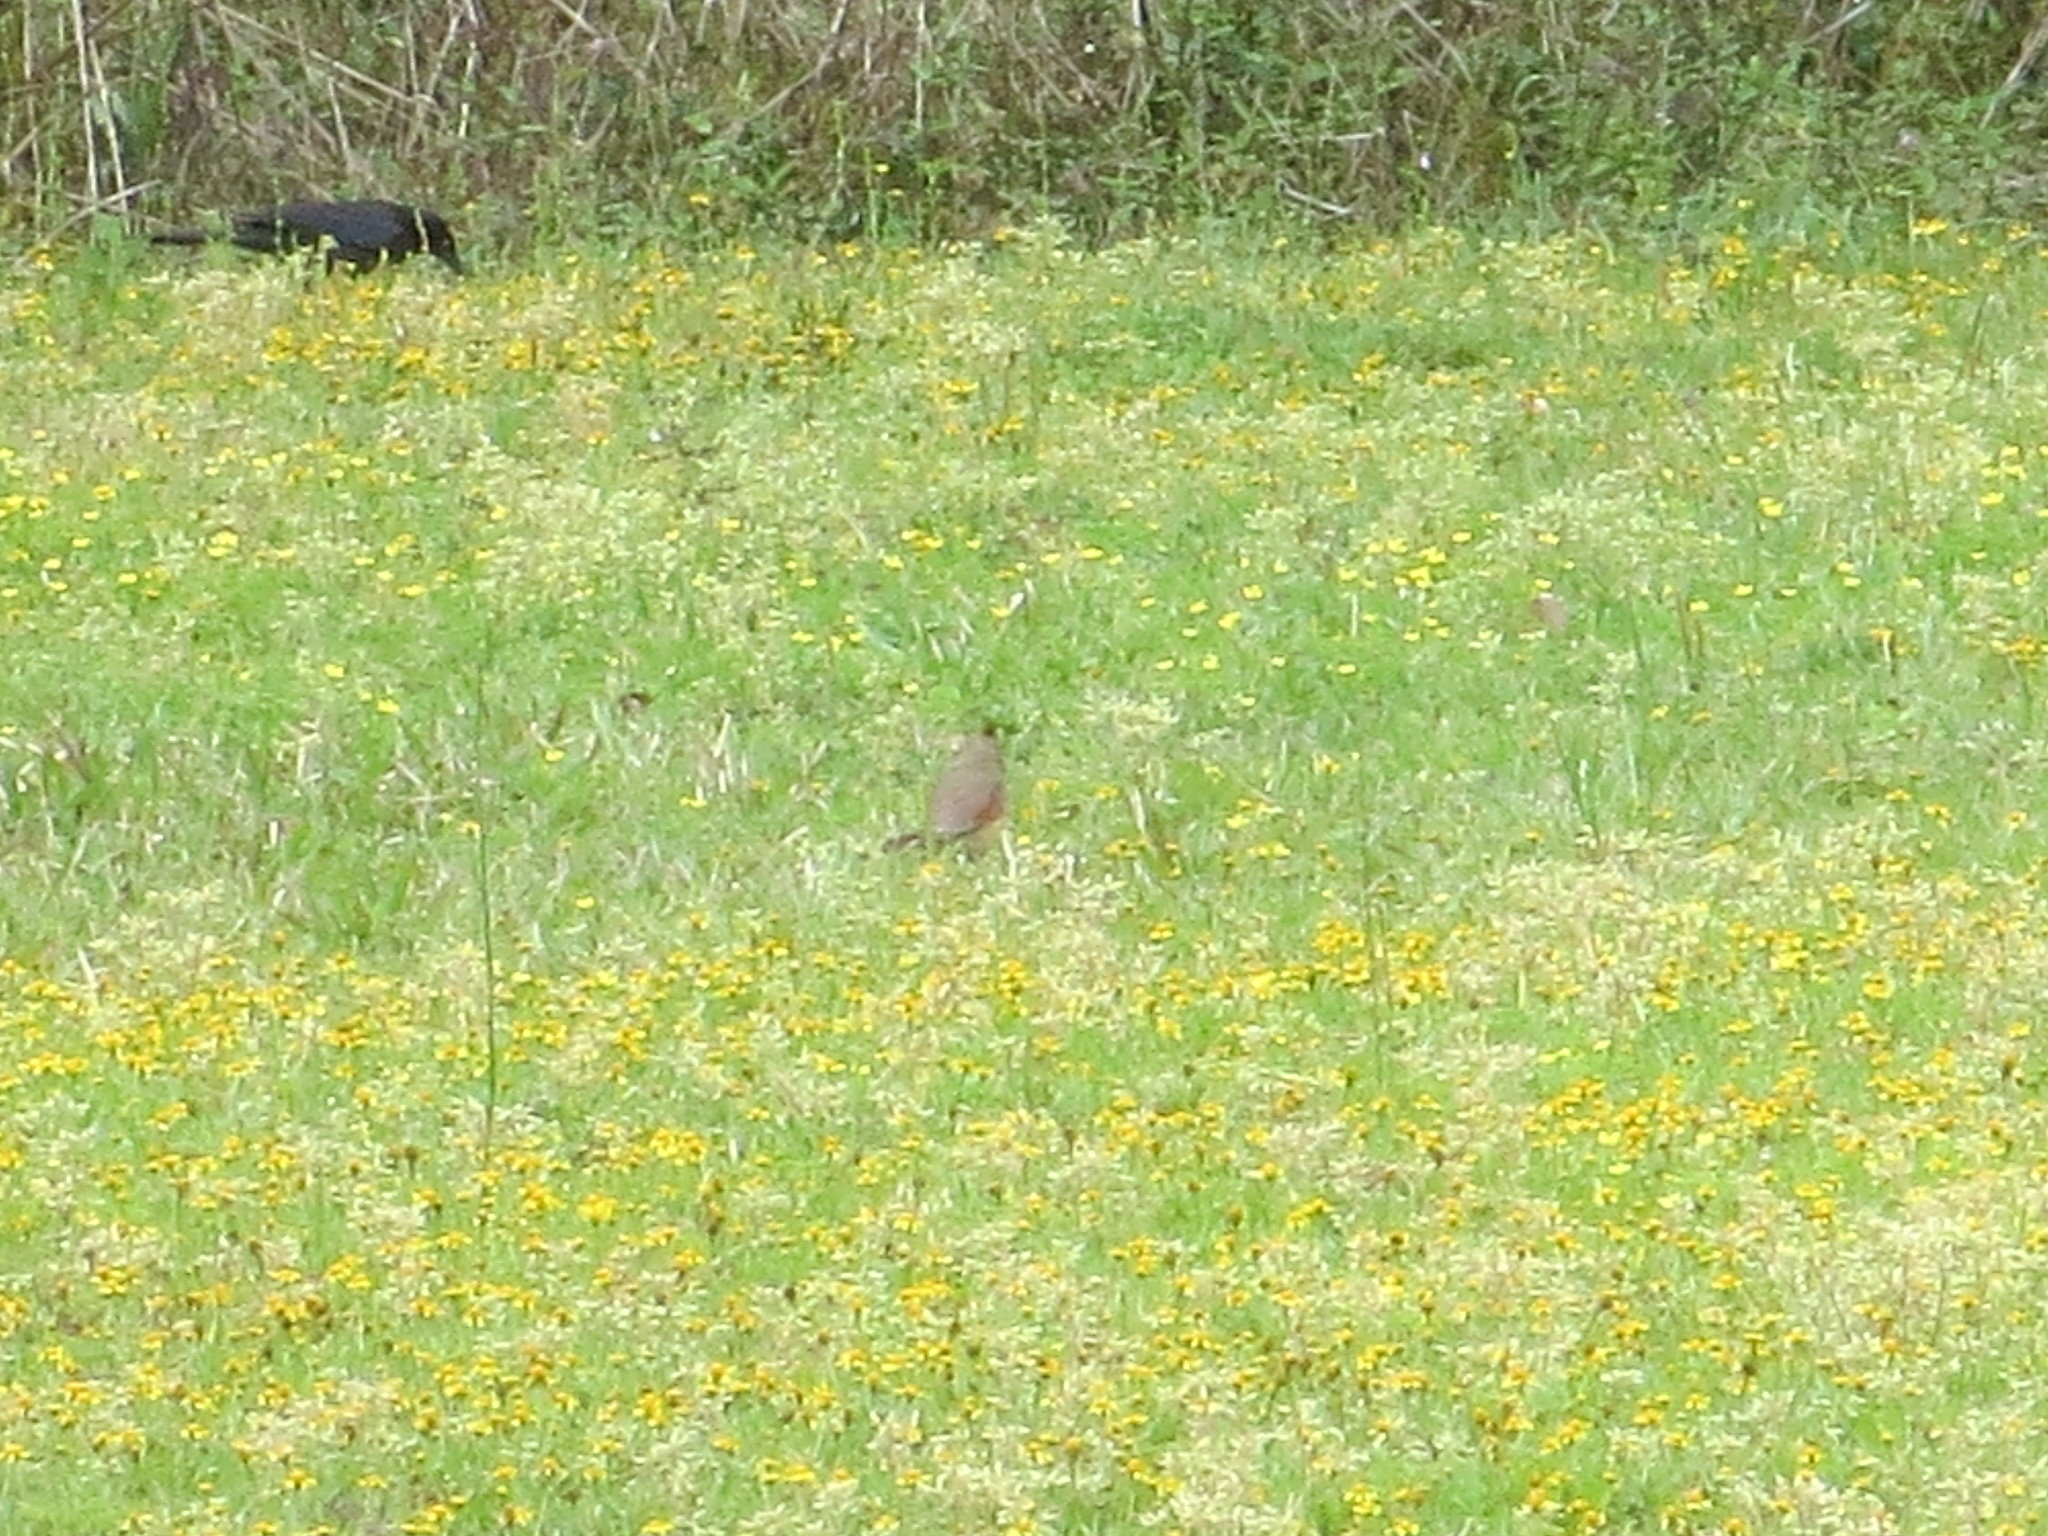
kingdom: Animalia
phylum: Chordata
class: Aves
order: Passeriformes
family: Cardinalidae
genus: Cardinalis
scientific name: Cardinalis cardinalis
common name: Northern cardinal
